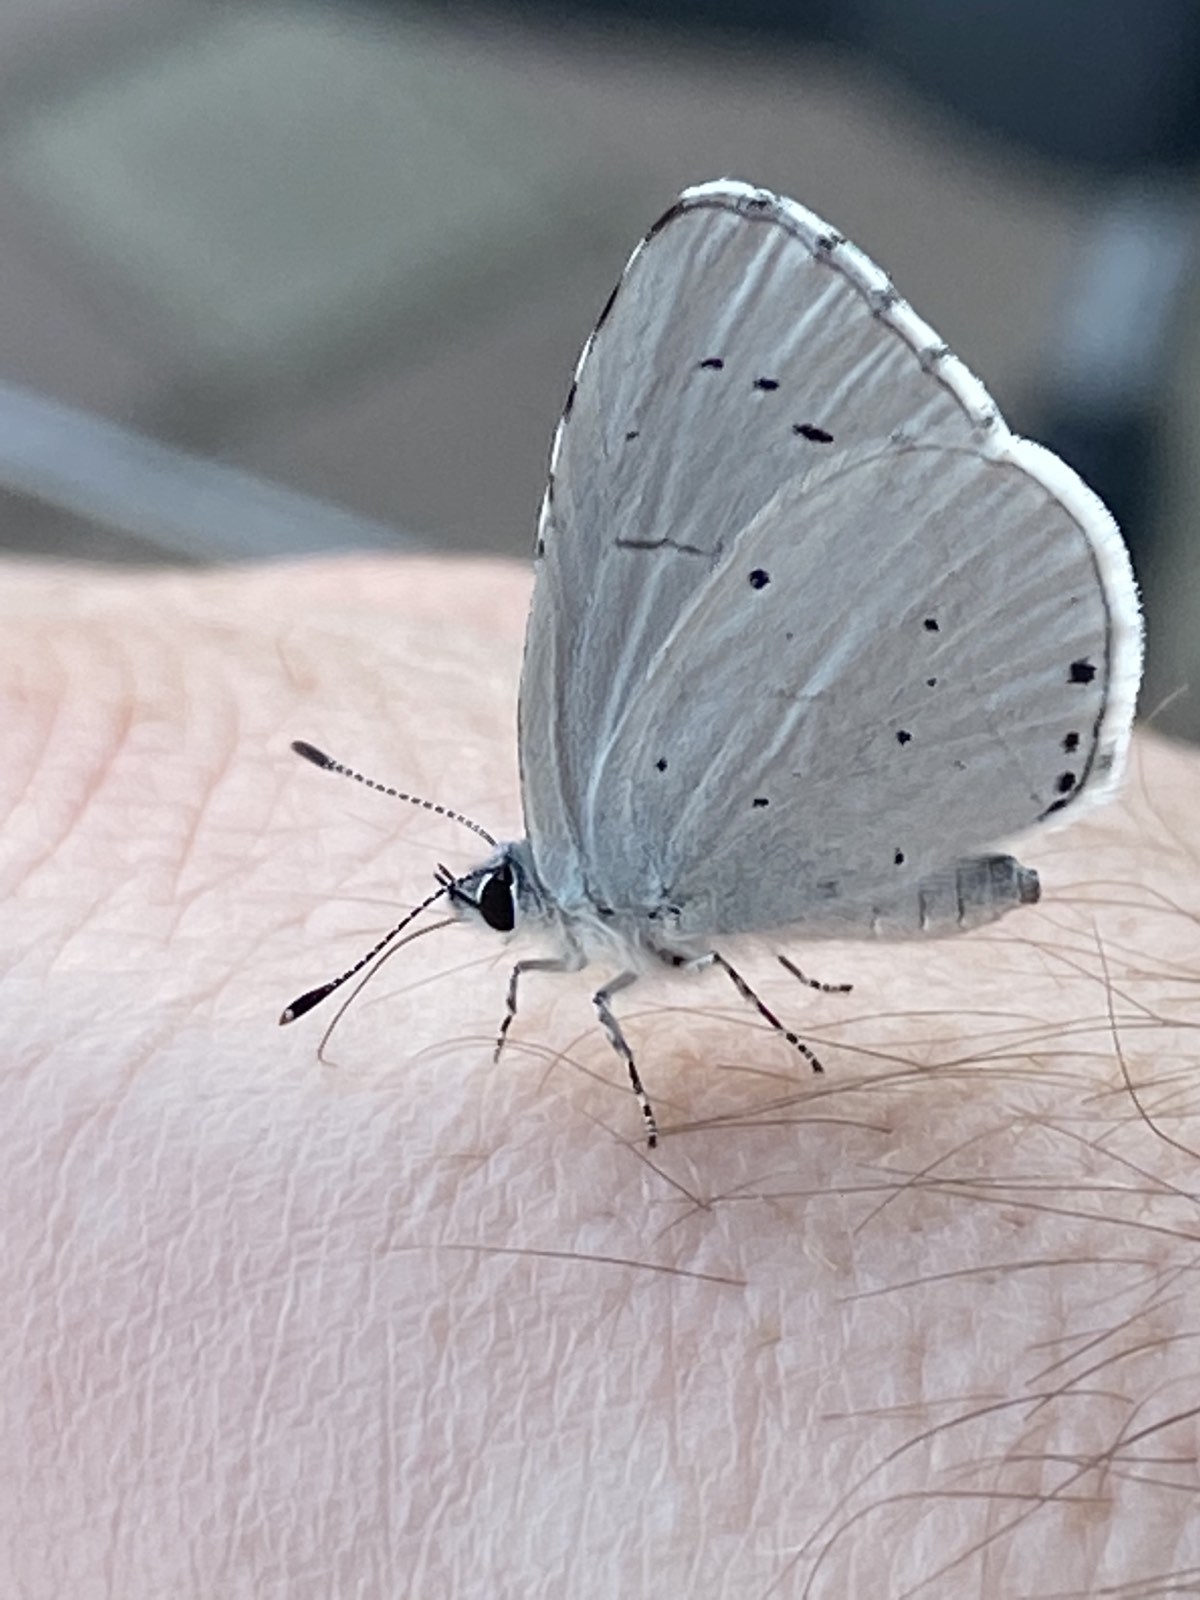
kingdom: Animalia
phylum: Arthropoda
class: Insecta
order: Lepidoptera
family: Lycaenidae
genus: Celastrina
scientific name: Celastrina argiolus
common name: Holly blue
